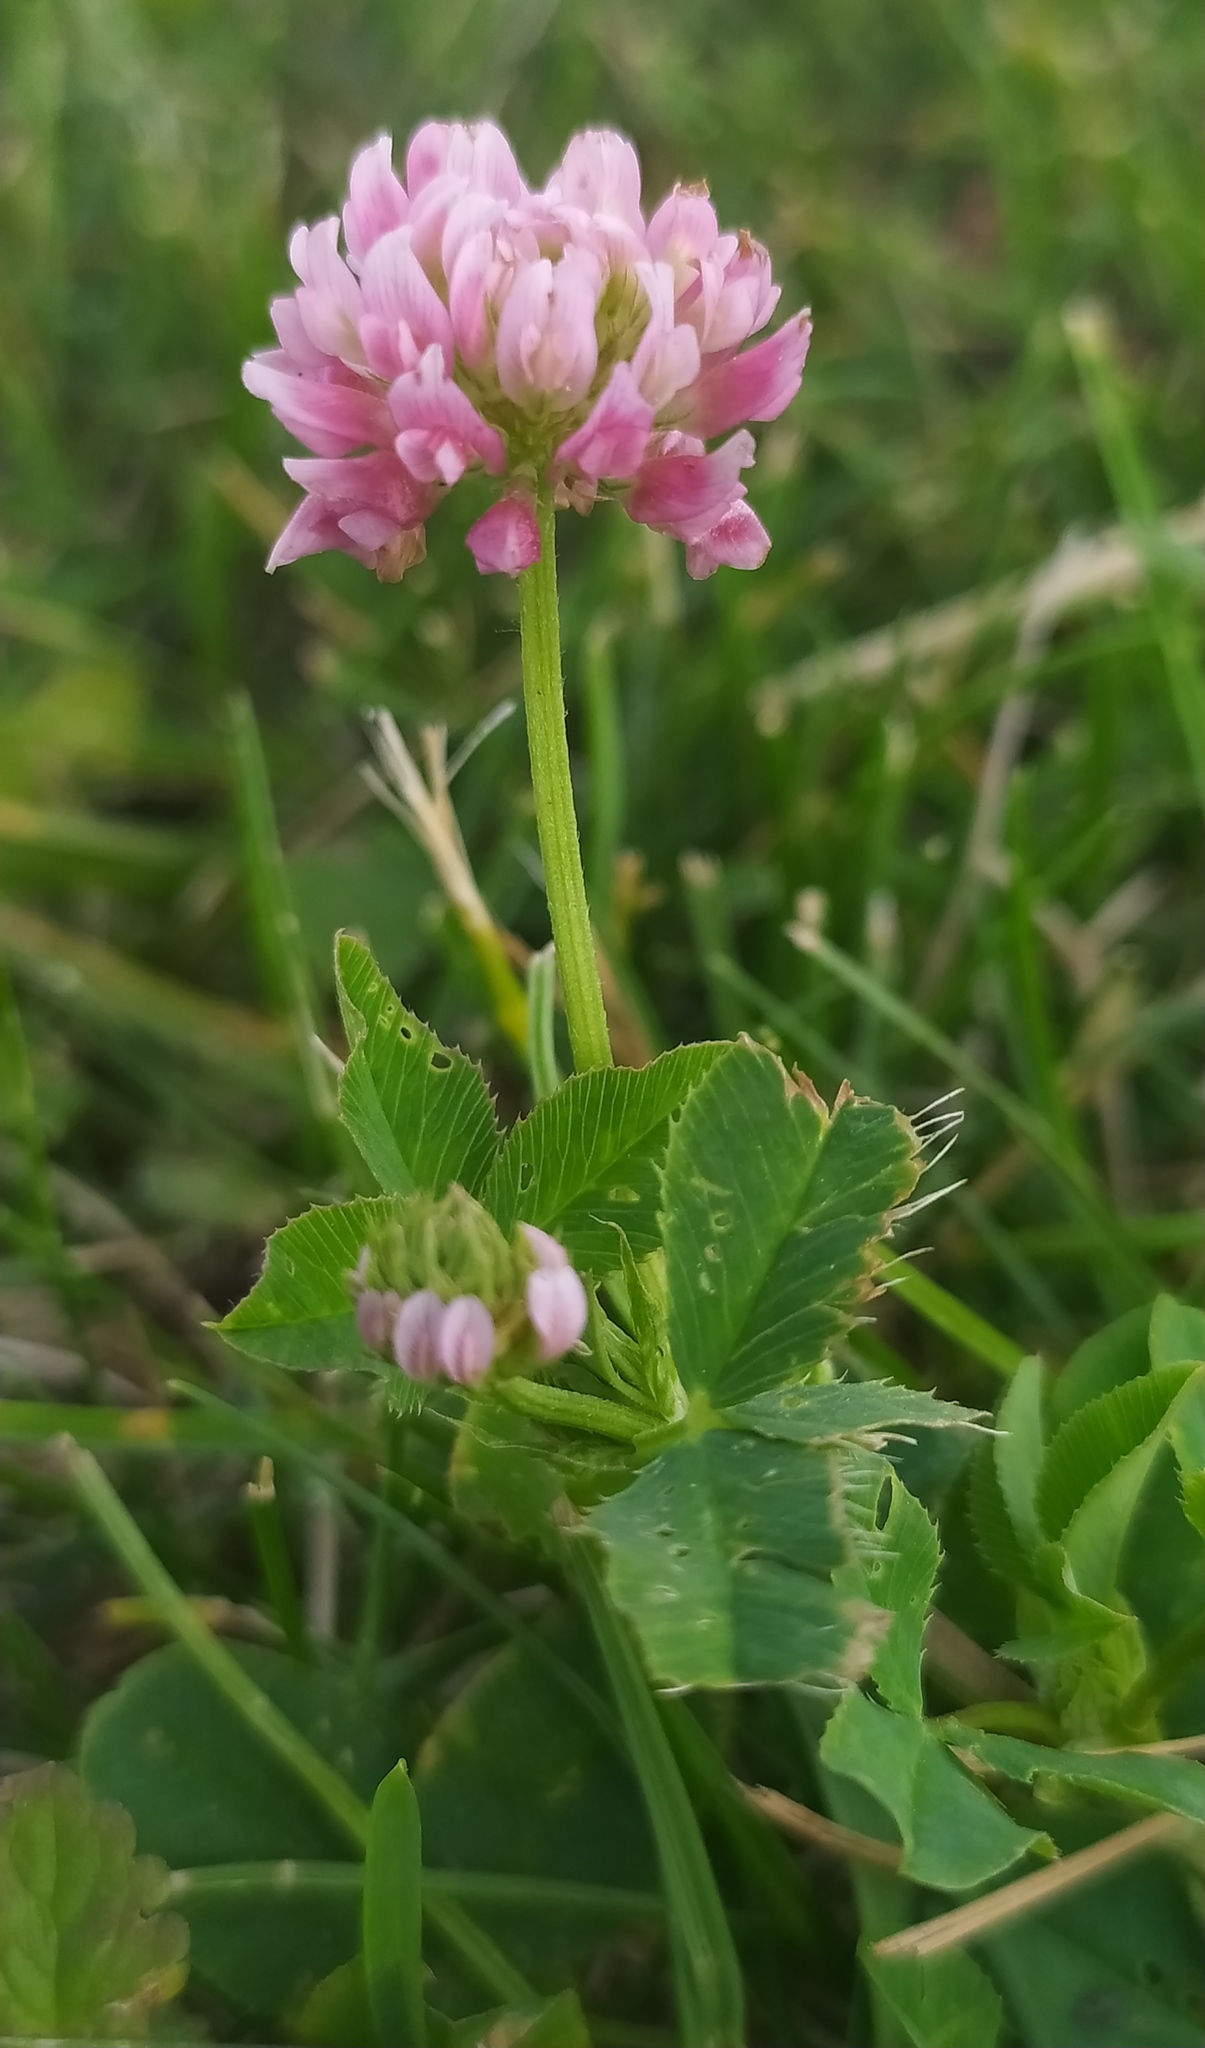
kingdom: Plantae
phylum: Tracheophyta
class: Magnoliopsida
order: Fabales
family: Fabaceae
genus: Trifolium
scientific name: Trifolium hybridum
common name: Alsike clover
